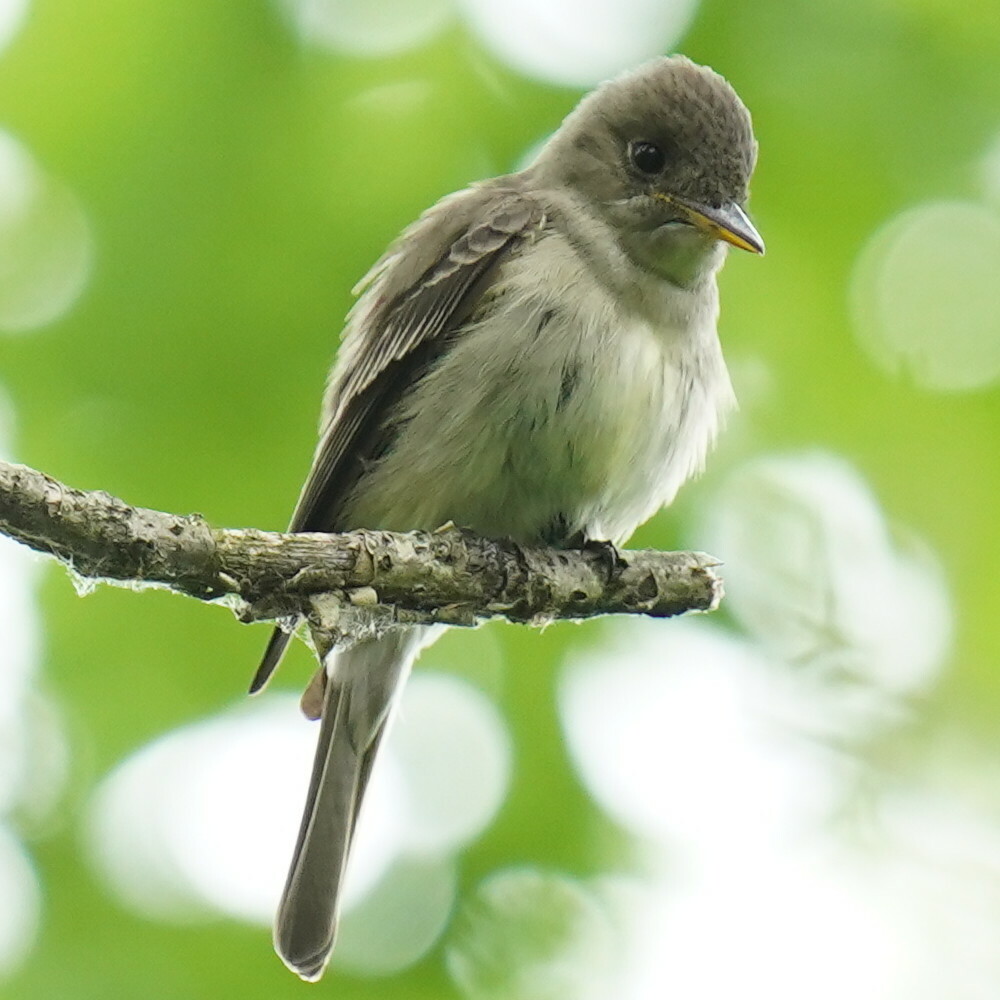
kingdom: Animalia
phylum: Chordata
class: Aves
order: Passeriformes
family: Tyrannidae
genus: Contopus
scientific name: Contopus virens
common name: Eastern wood-pewee
